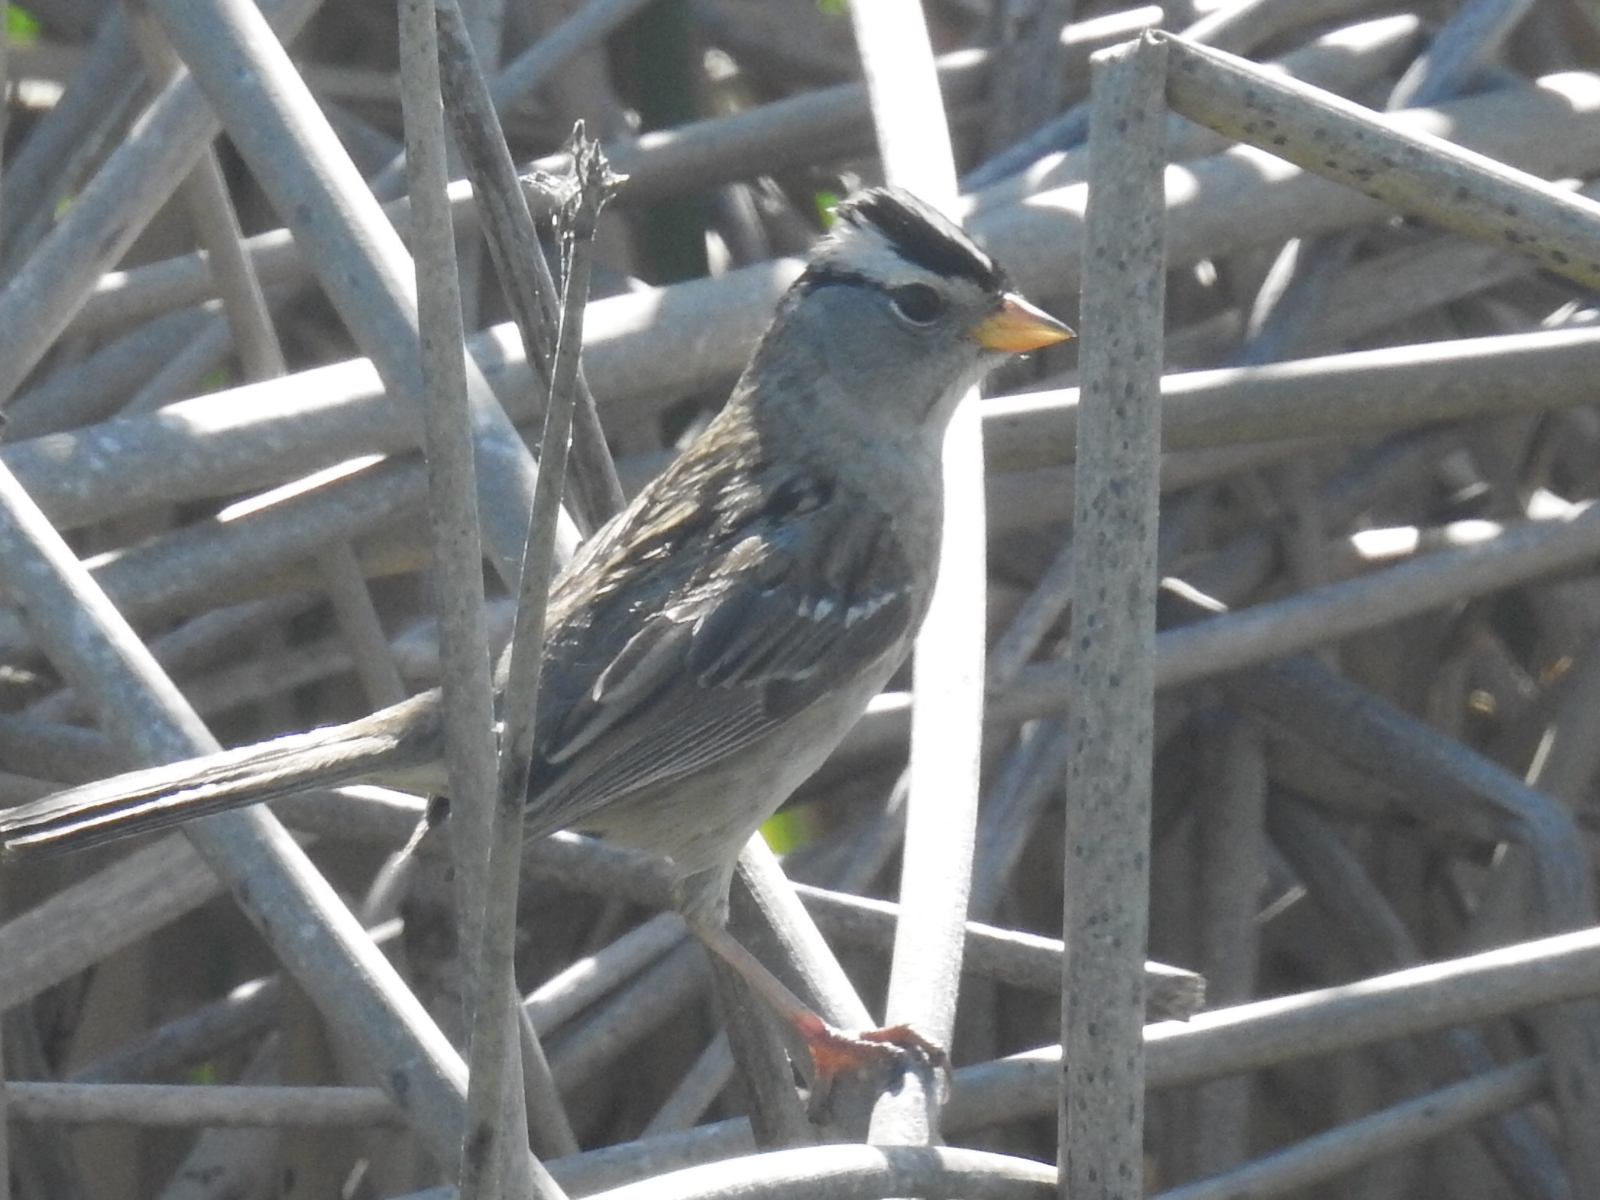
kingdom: Animalia
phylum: Chordata
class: Aves
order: Passeriformes
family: Passerellidae
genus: Zonotrichia
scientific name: Zonotrichia leucophrys
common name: White-crowned sparrow
